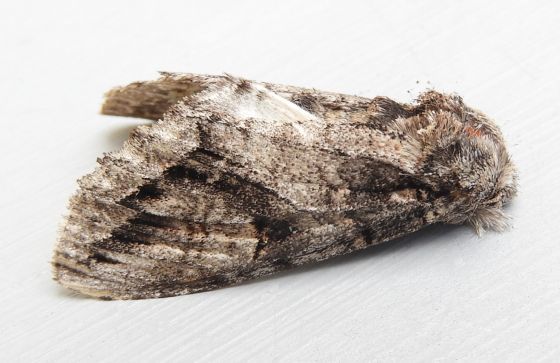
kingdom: Animalia
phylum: Arthropoda
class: Insecta
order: Lepidoptera
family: Notodontidae
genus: Heterocampa
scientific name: Heterocampa averna
